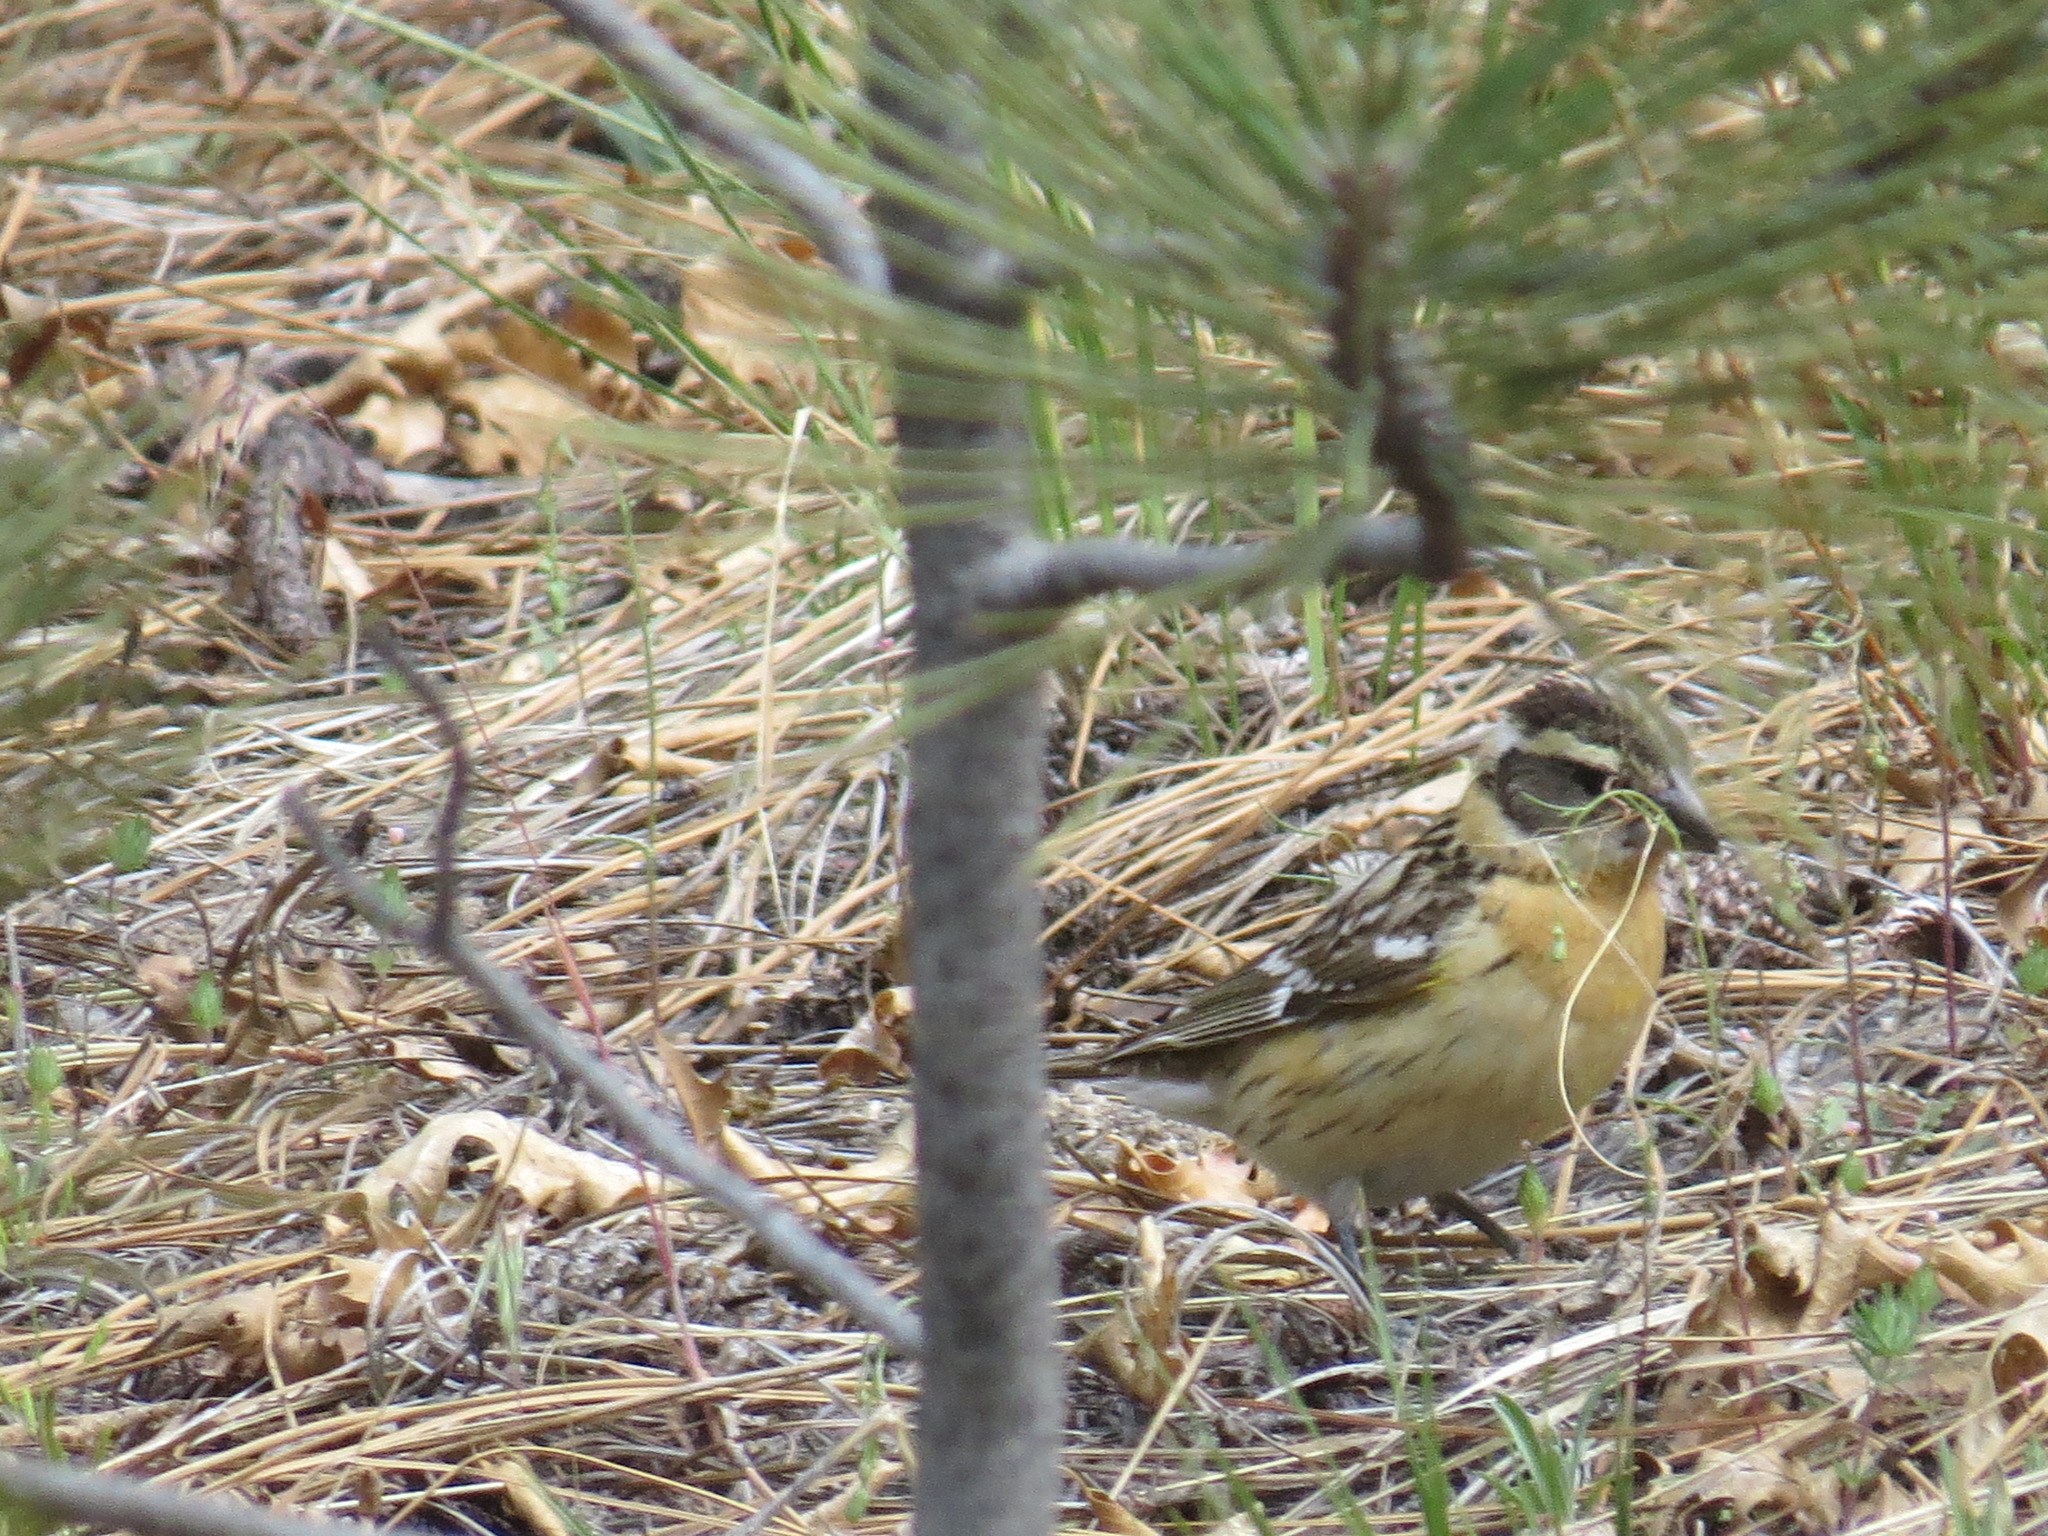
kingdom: Animalia
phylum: Chordata
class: Aves
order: Passeriformes
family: Cardinalidae
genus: Pheucticus
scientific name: Pheucticus melanocephalus
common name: Black-headed grosbeak
